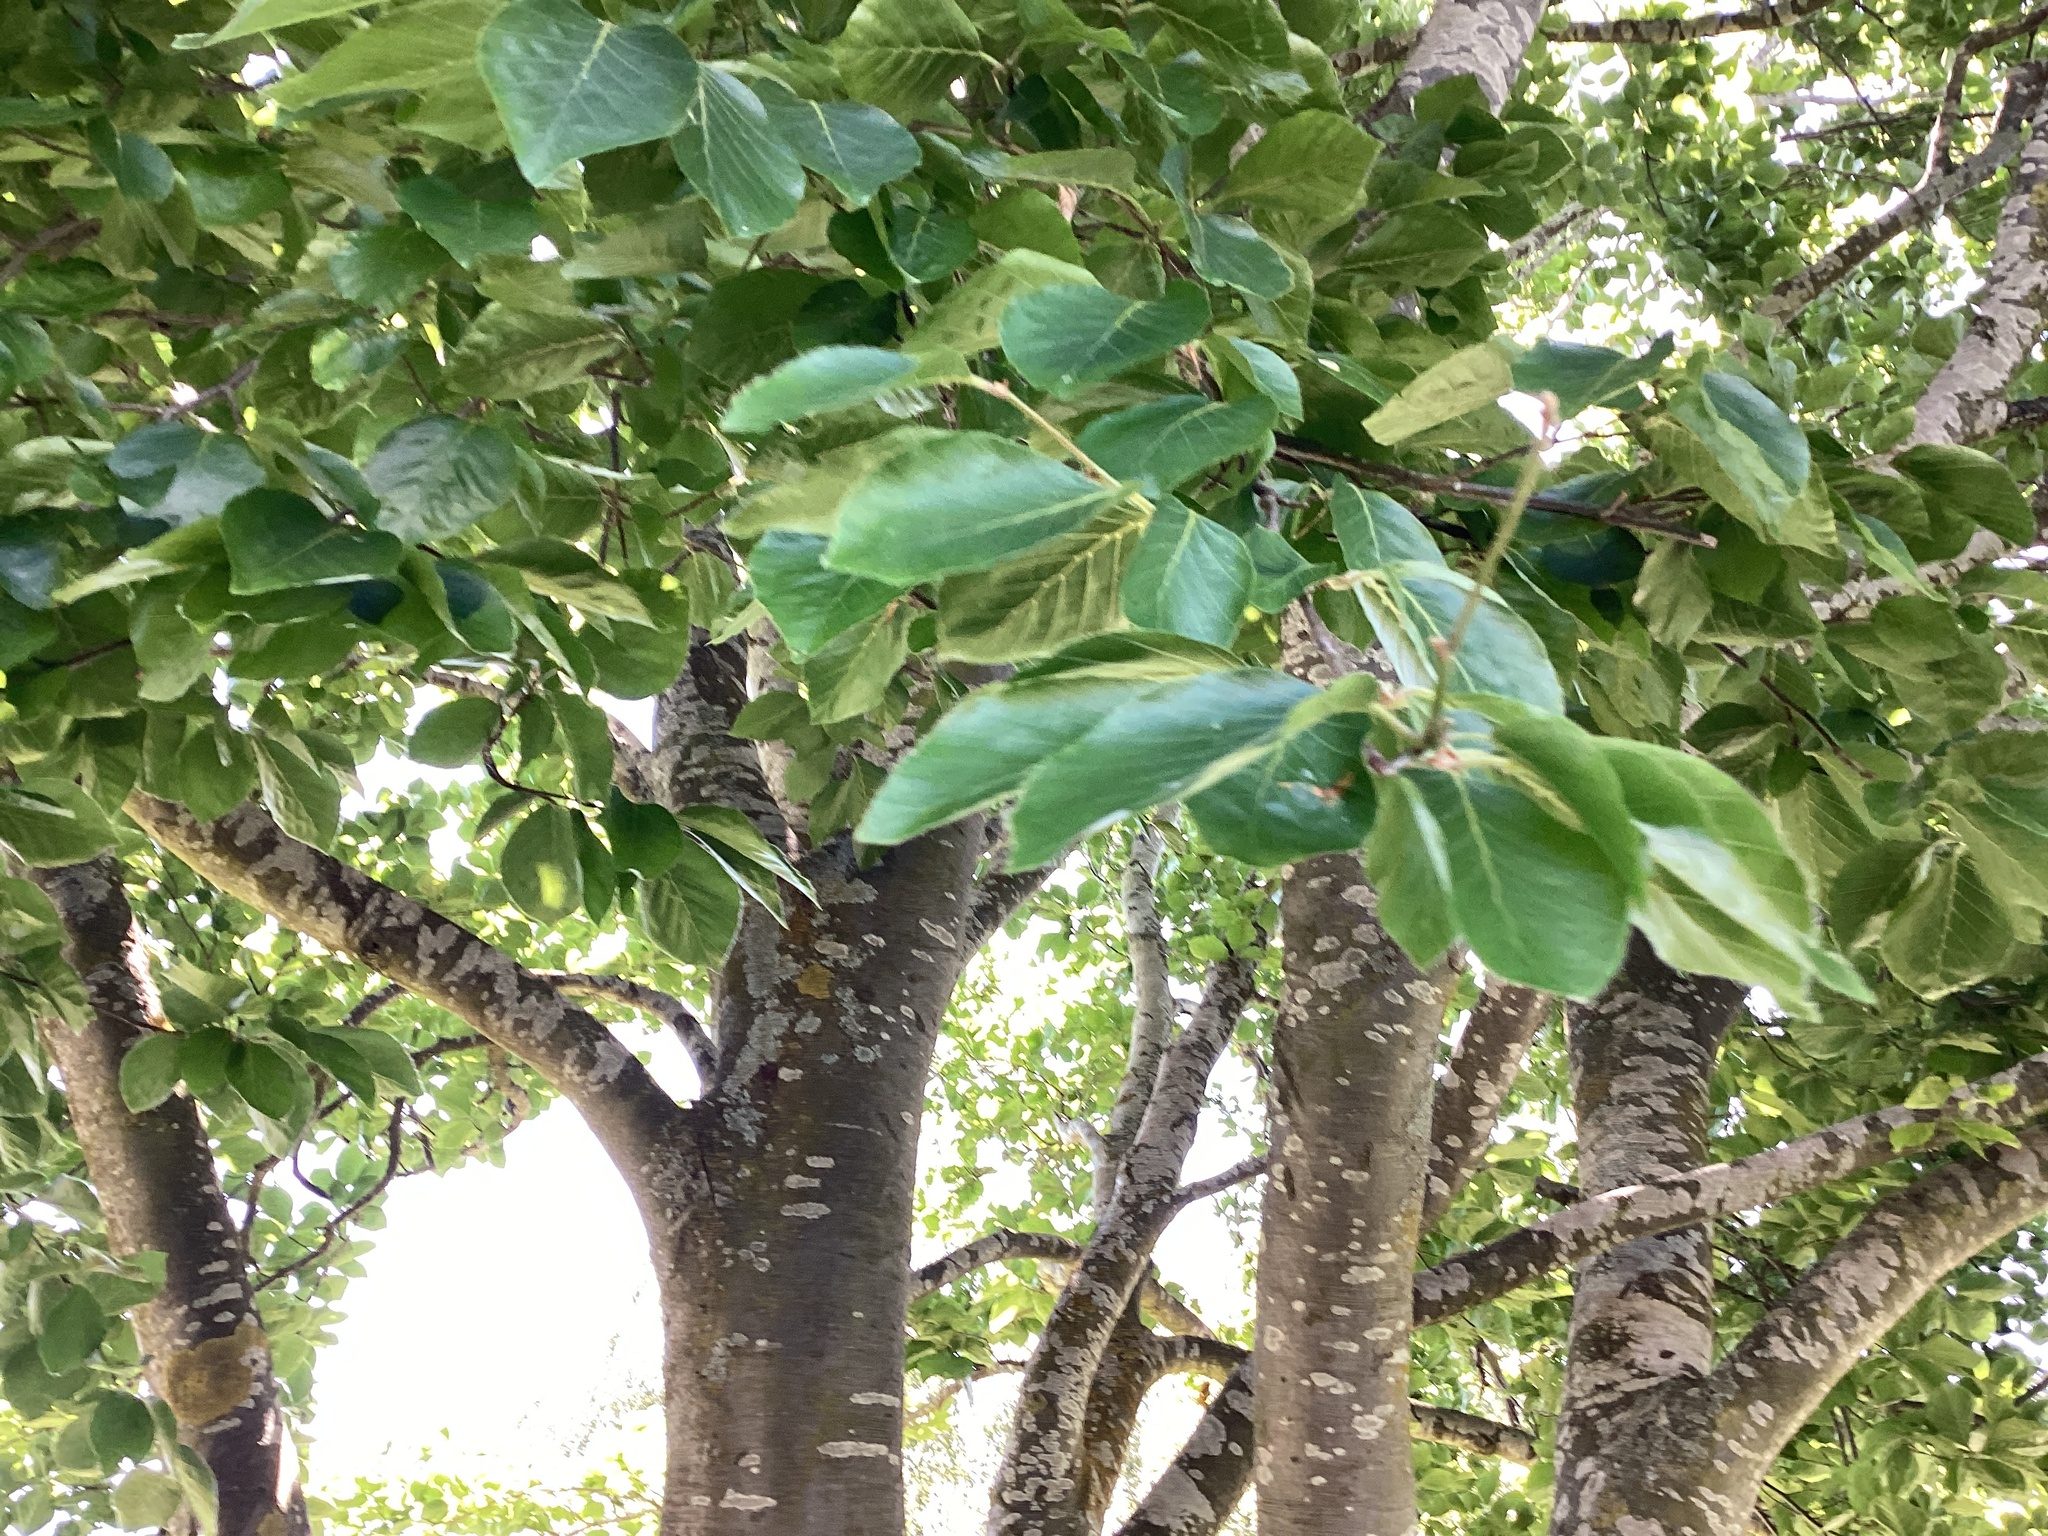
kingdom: Plantae
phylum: Tracheophyta
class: Magnoliopsida
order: Fagales
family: Fagaceae
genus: Fagus
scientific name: Fagus sylvatica
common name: Beech
